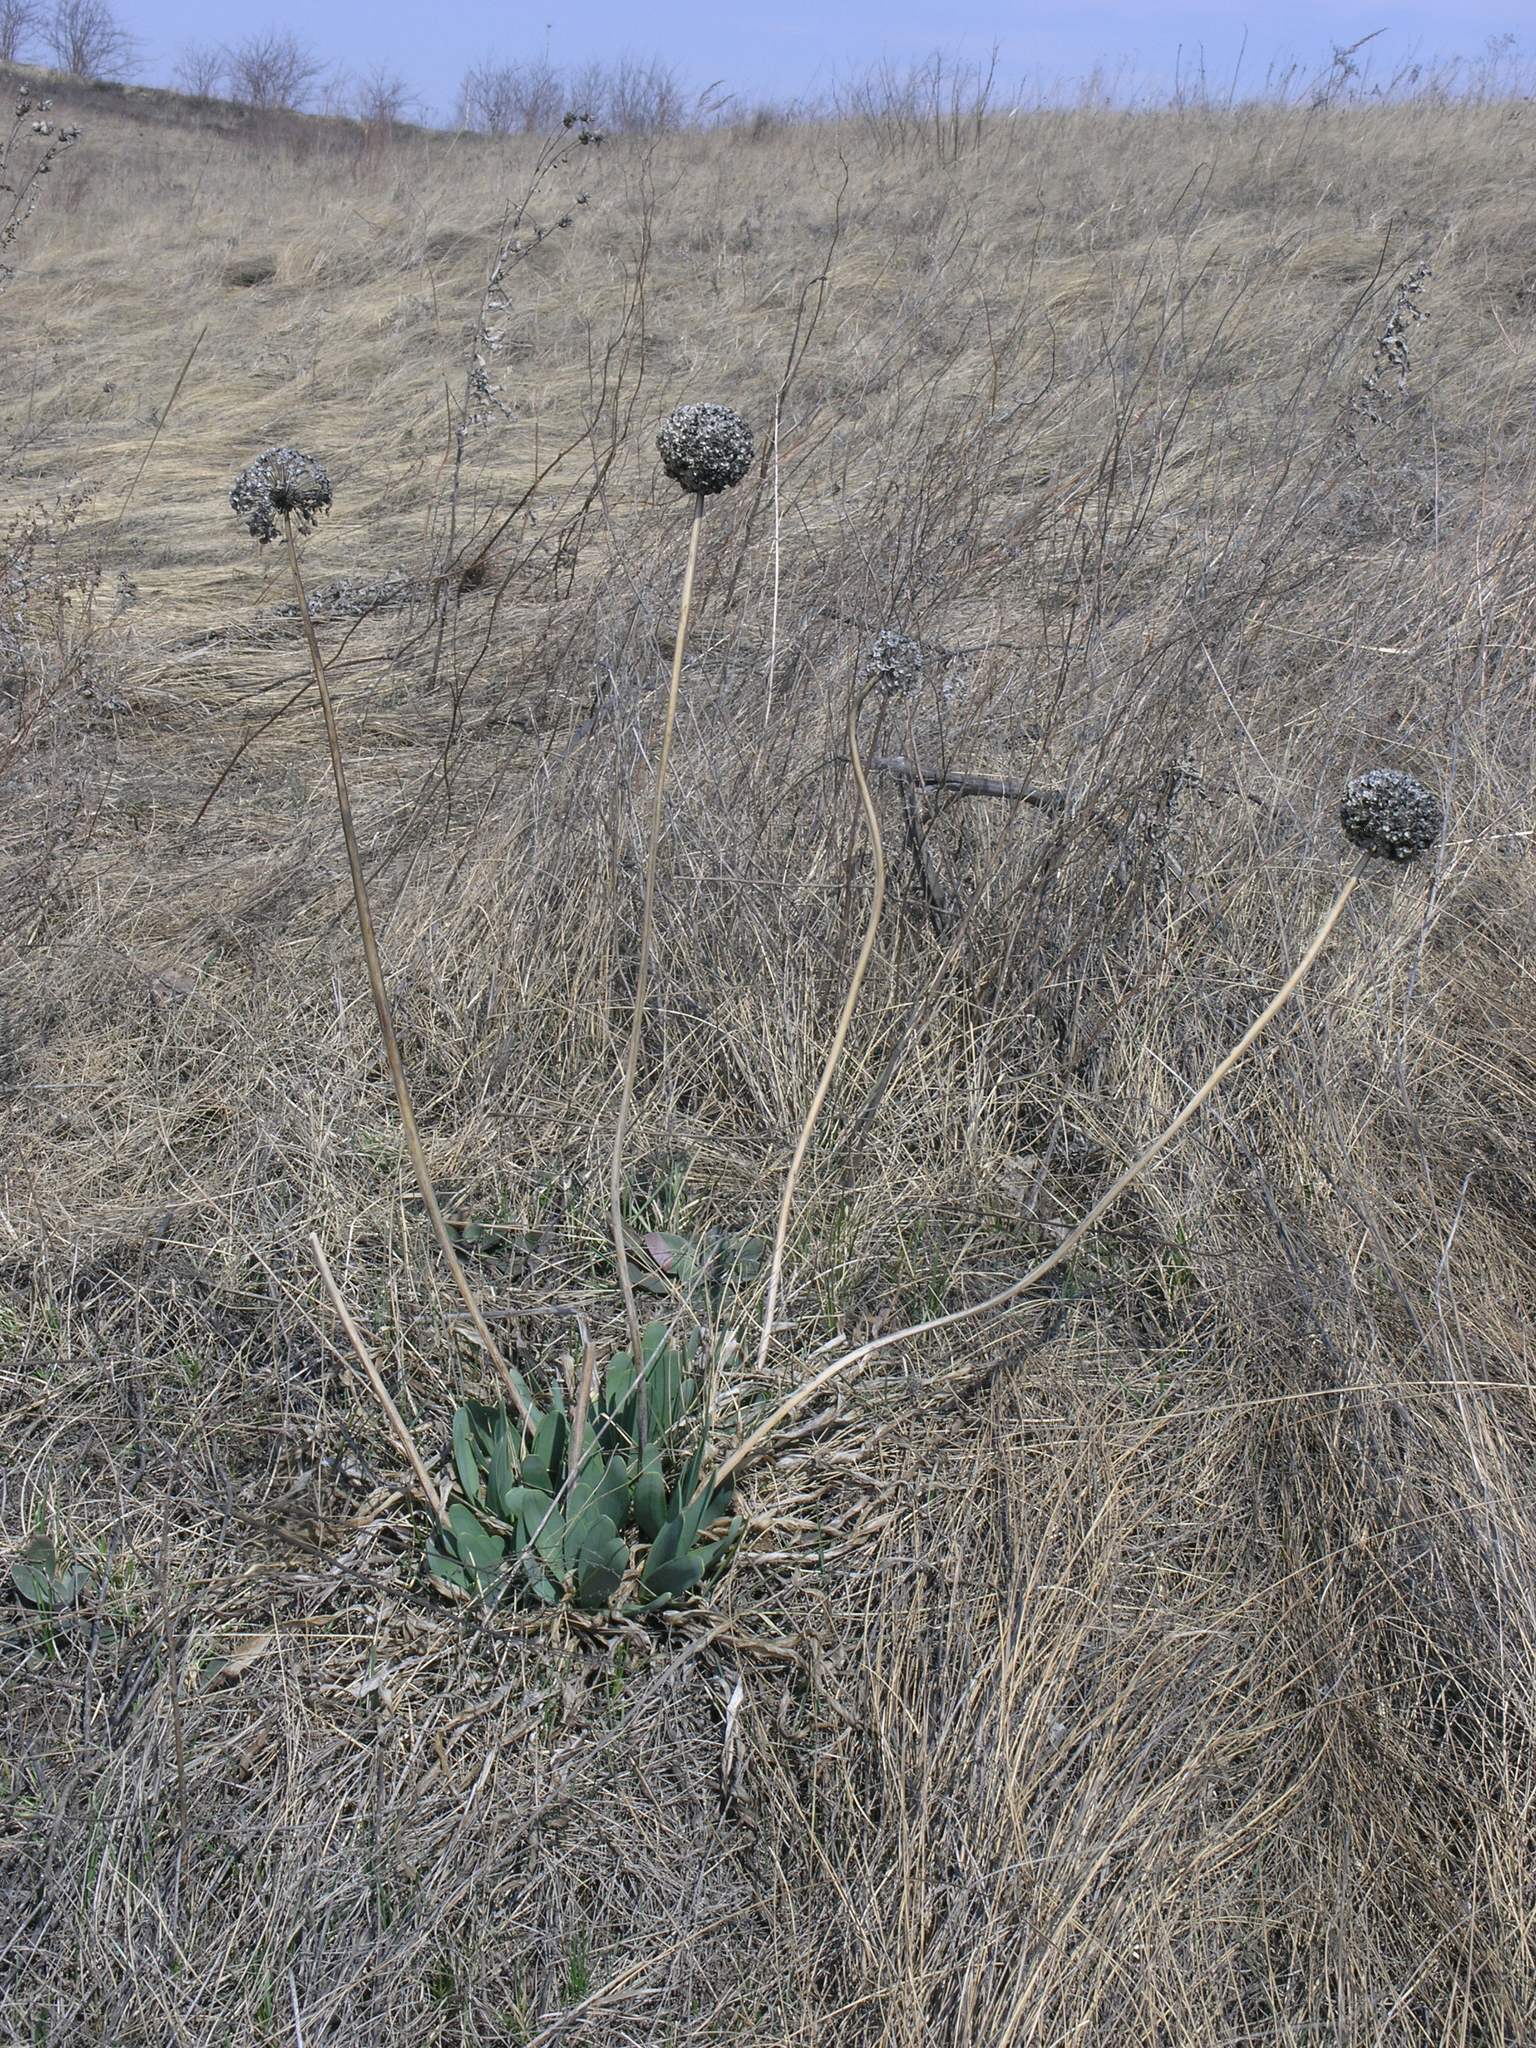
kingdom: Plantae
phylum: Tracheophyta
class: Liliopsida
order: Asparagales
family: Amaryllidaceae
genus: Allium
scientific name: Allium nutans
